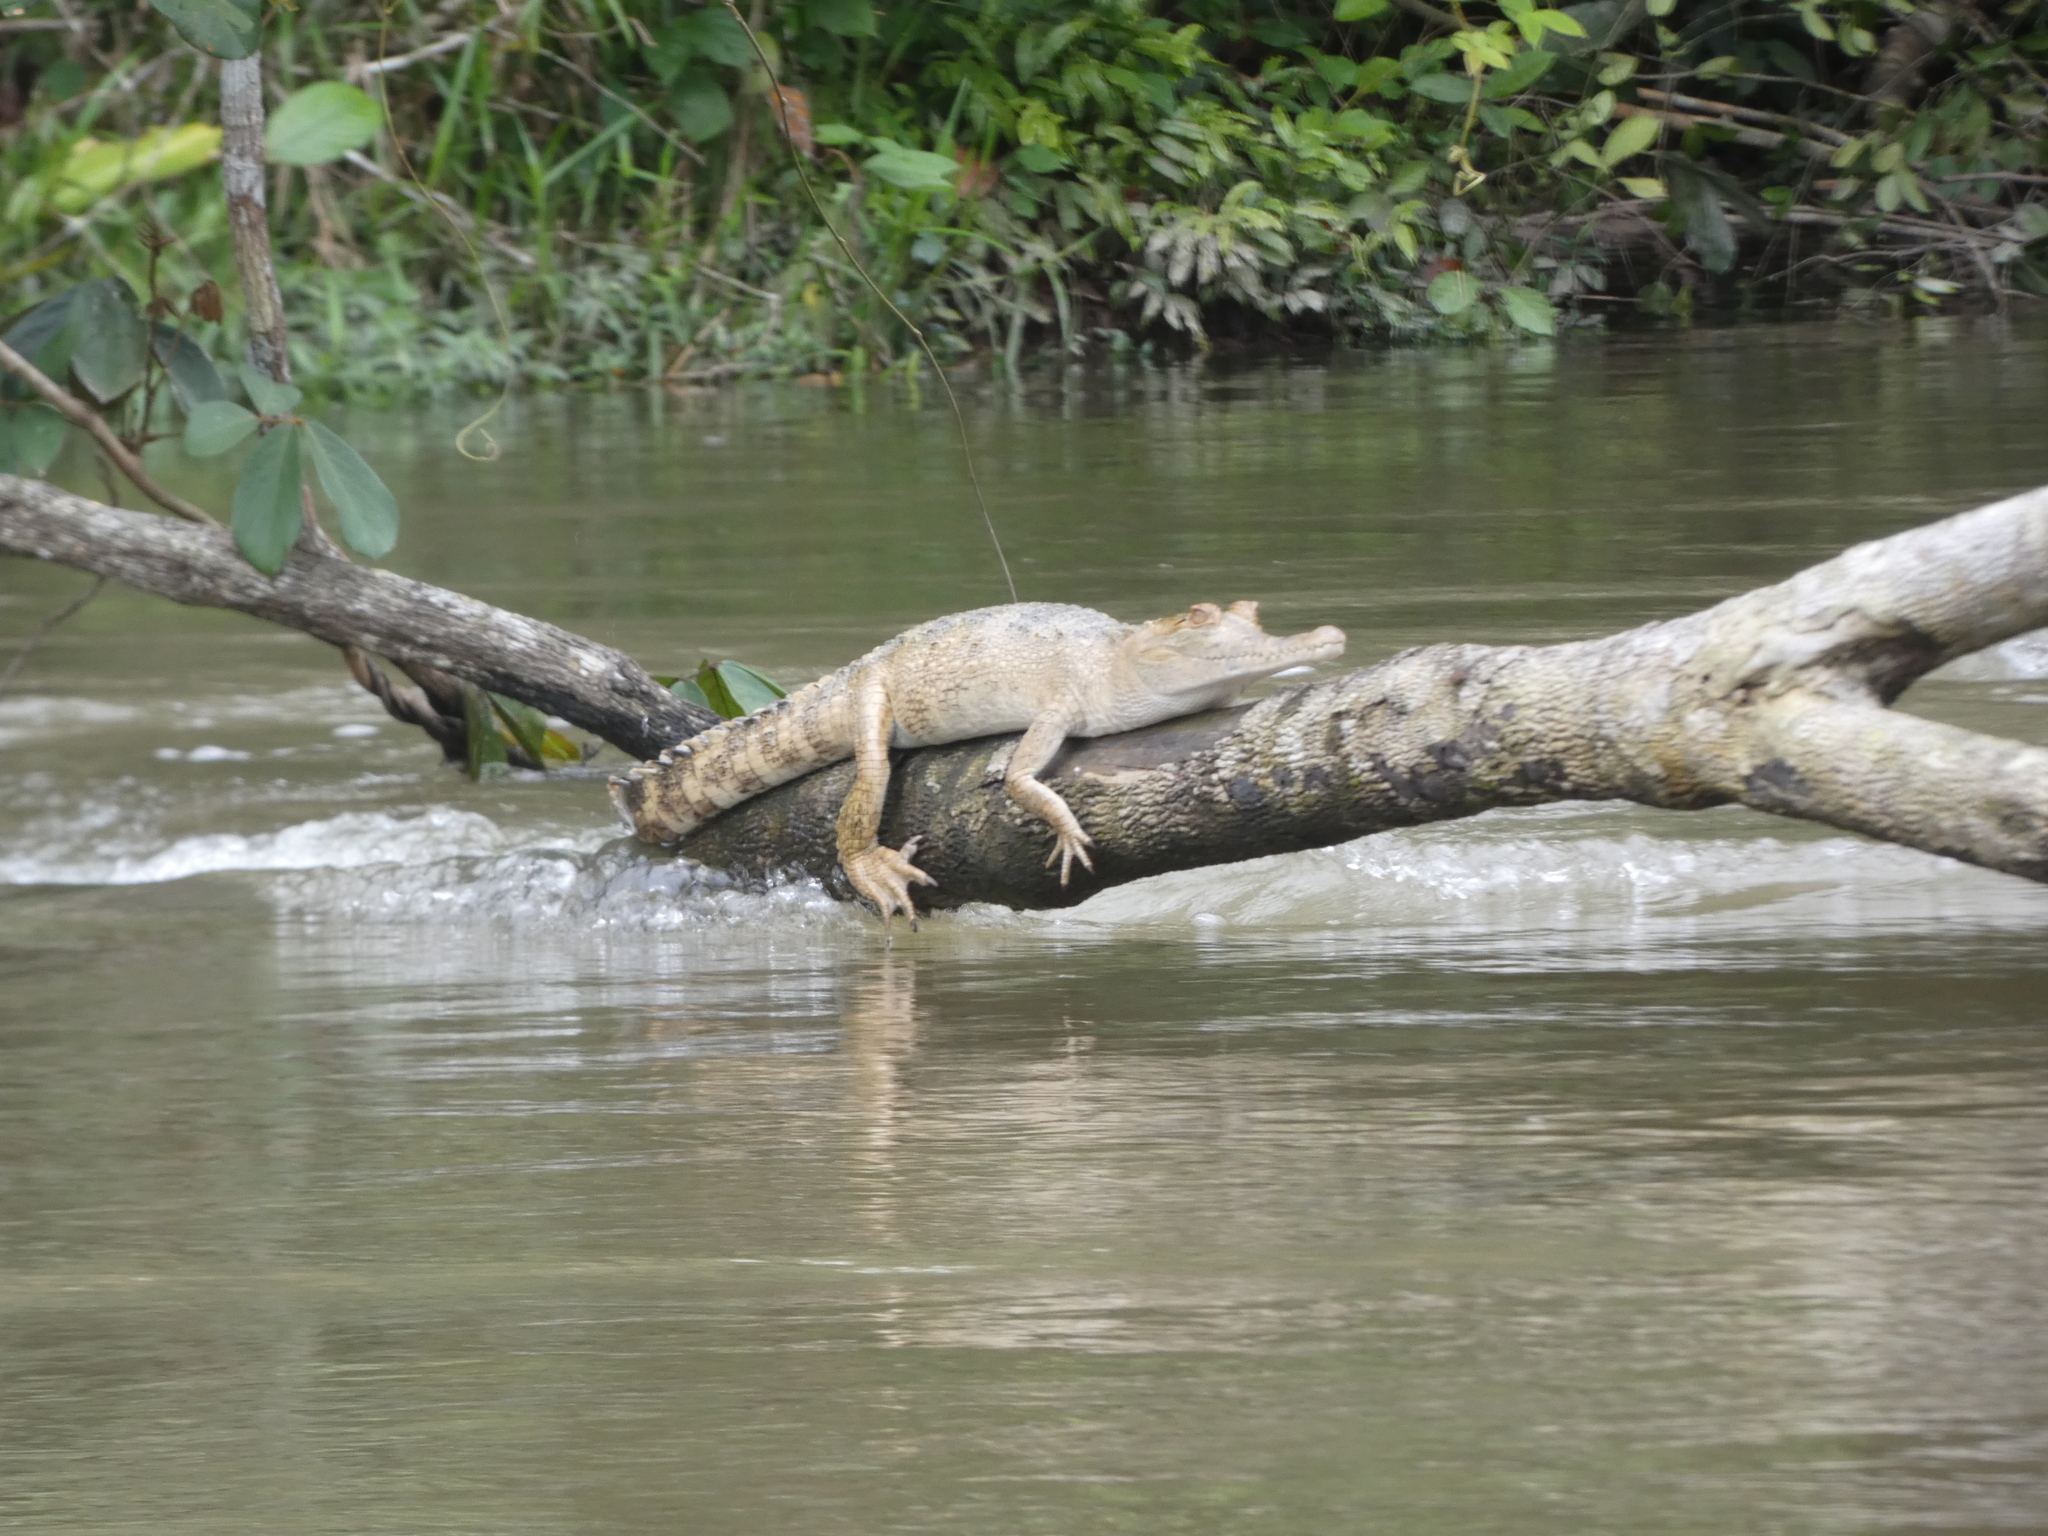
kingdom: Animalia
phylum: Chordata
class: Crocodylia
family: Crocodylidae
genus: Mecistops
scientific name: Mecistops leptorhynchus
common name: Central african slender-snouted crocodile
